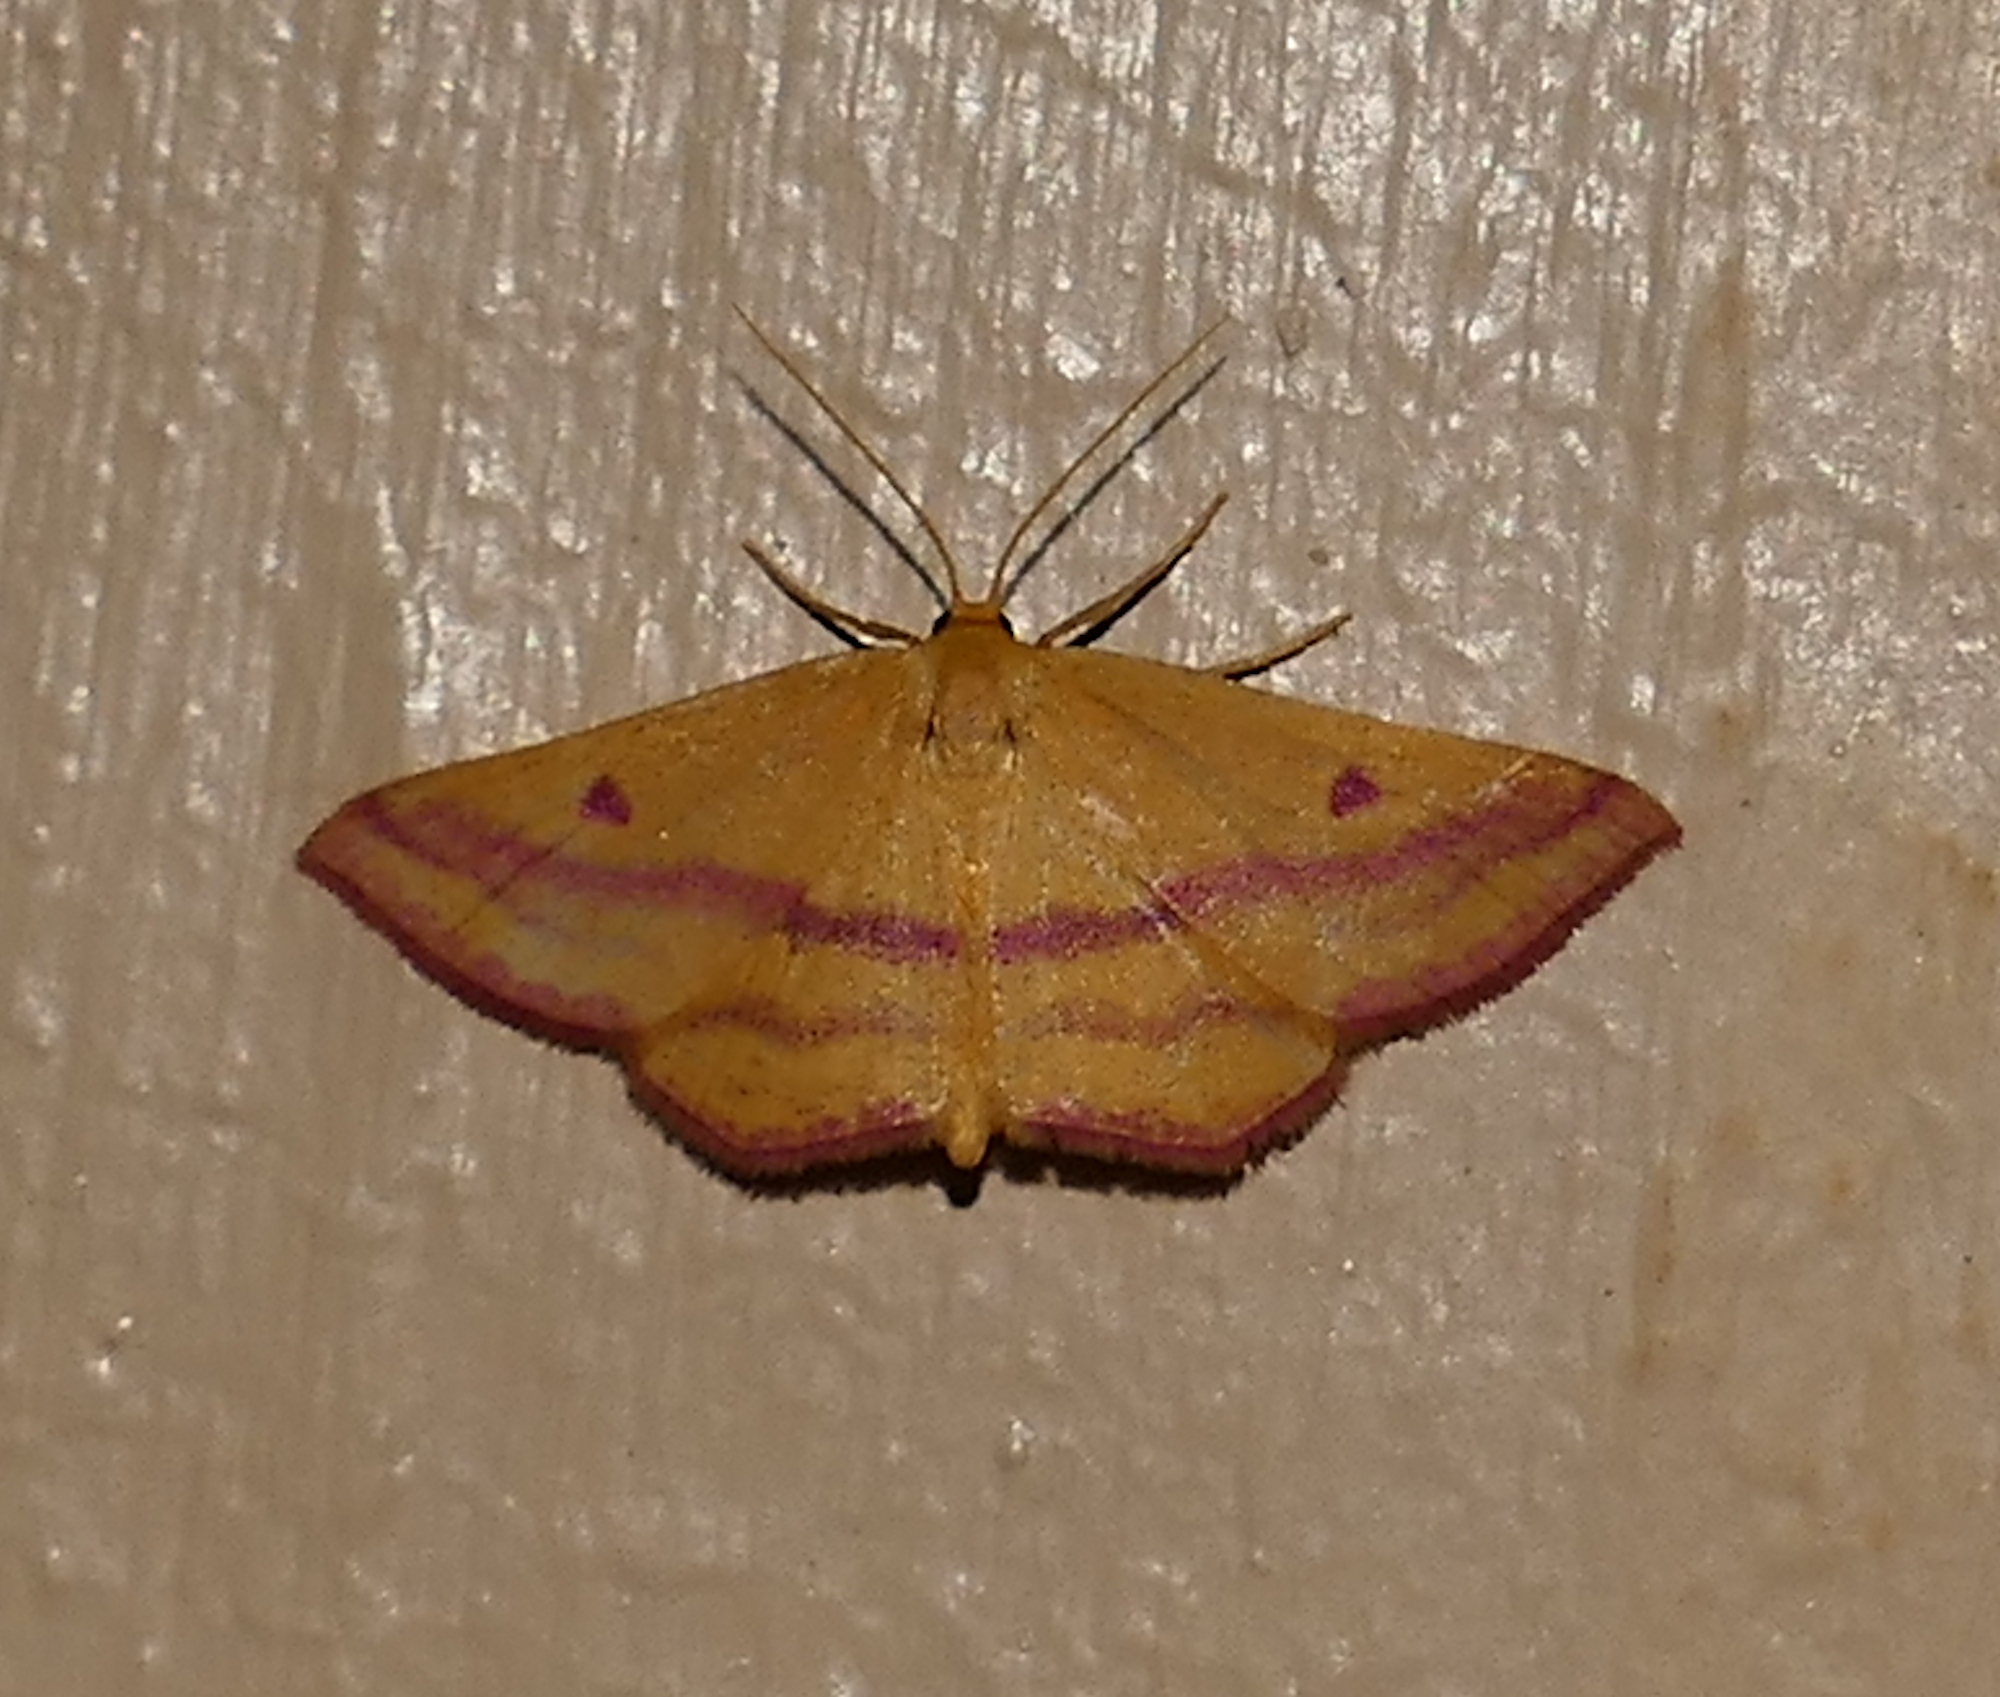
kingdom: Animalia
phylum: Arthropoda
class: Insecta
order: Lepidoptera
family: Geometridae
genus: Haematopis
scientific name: Haematopis grataria
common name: Chickweed geometer
